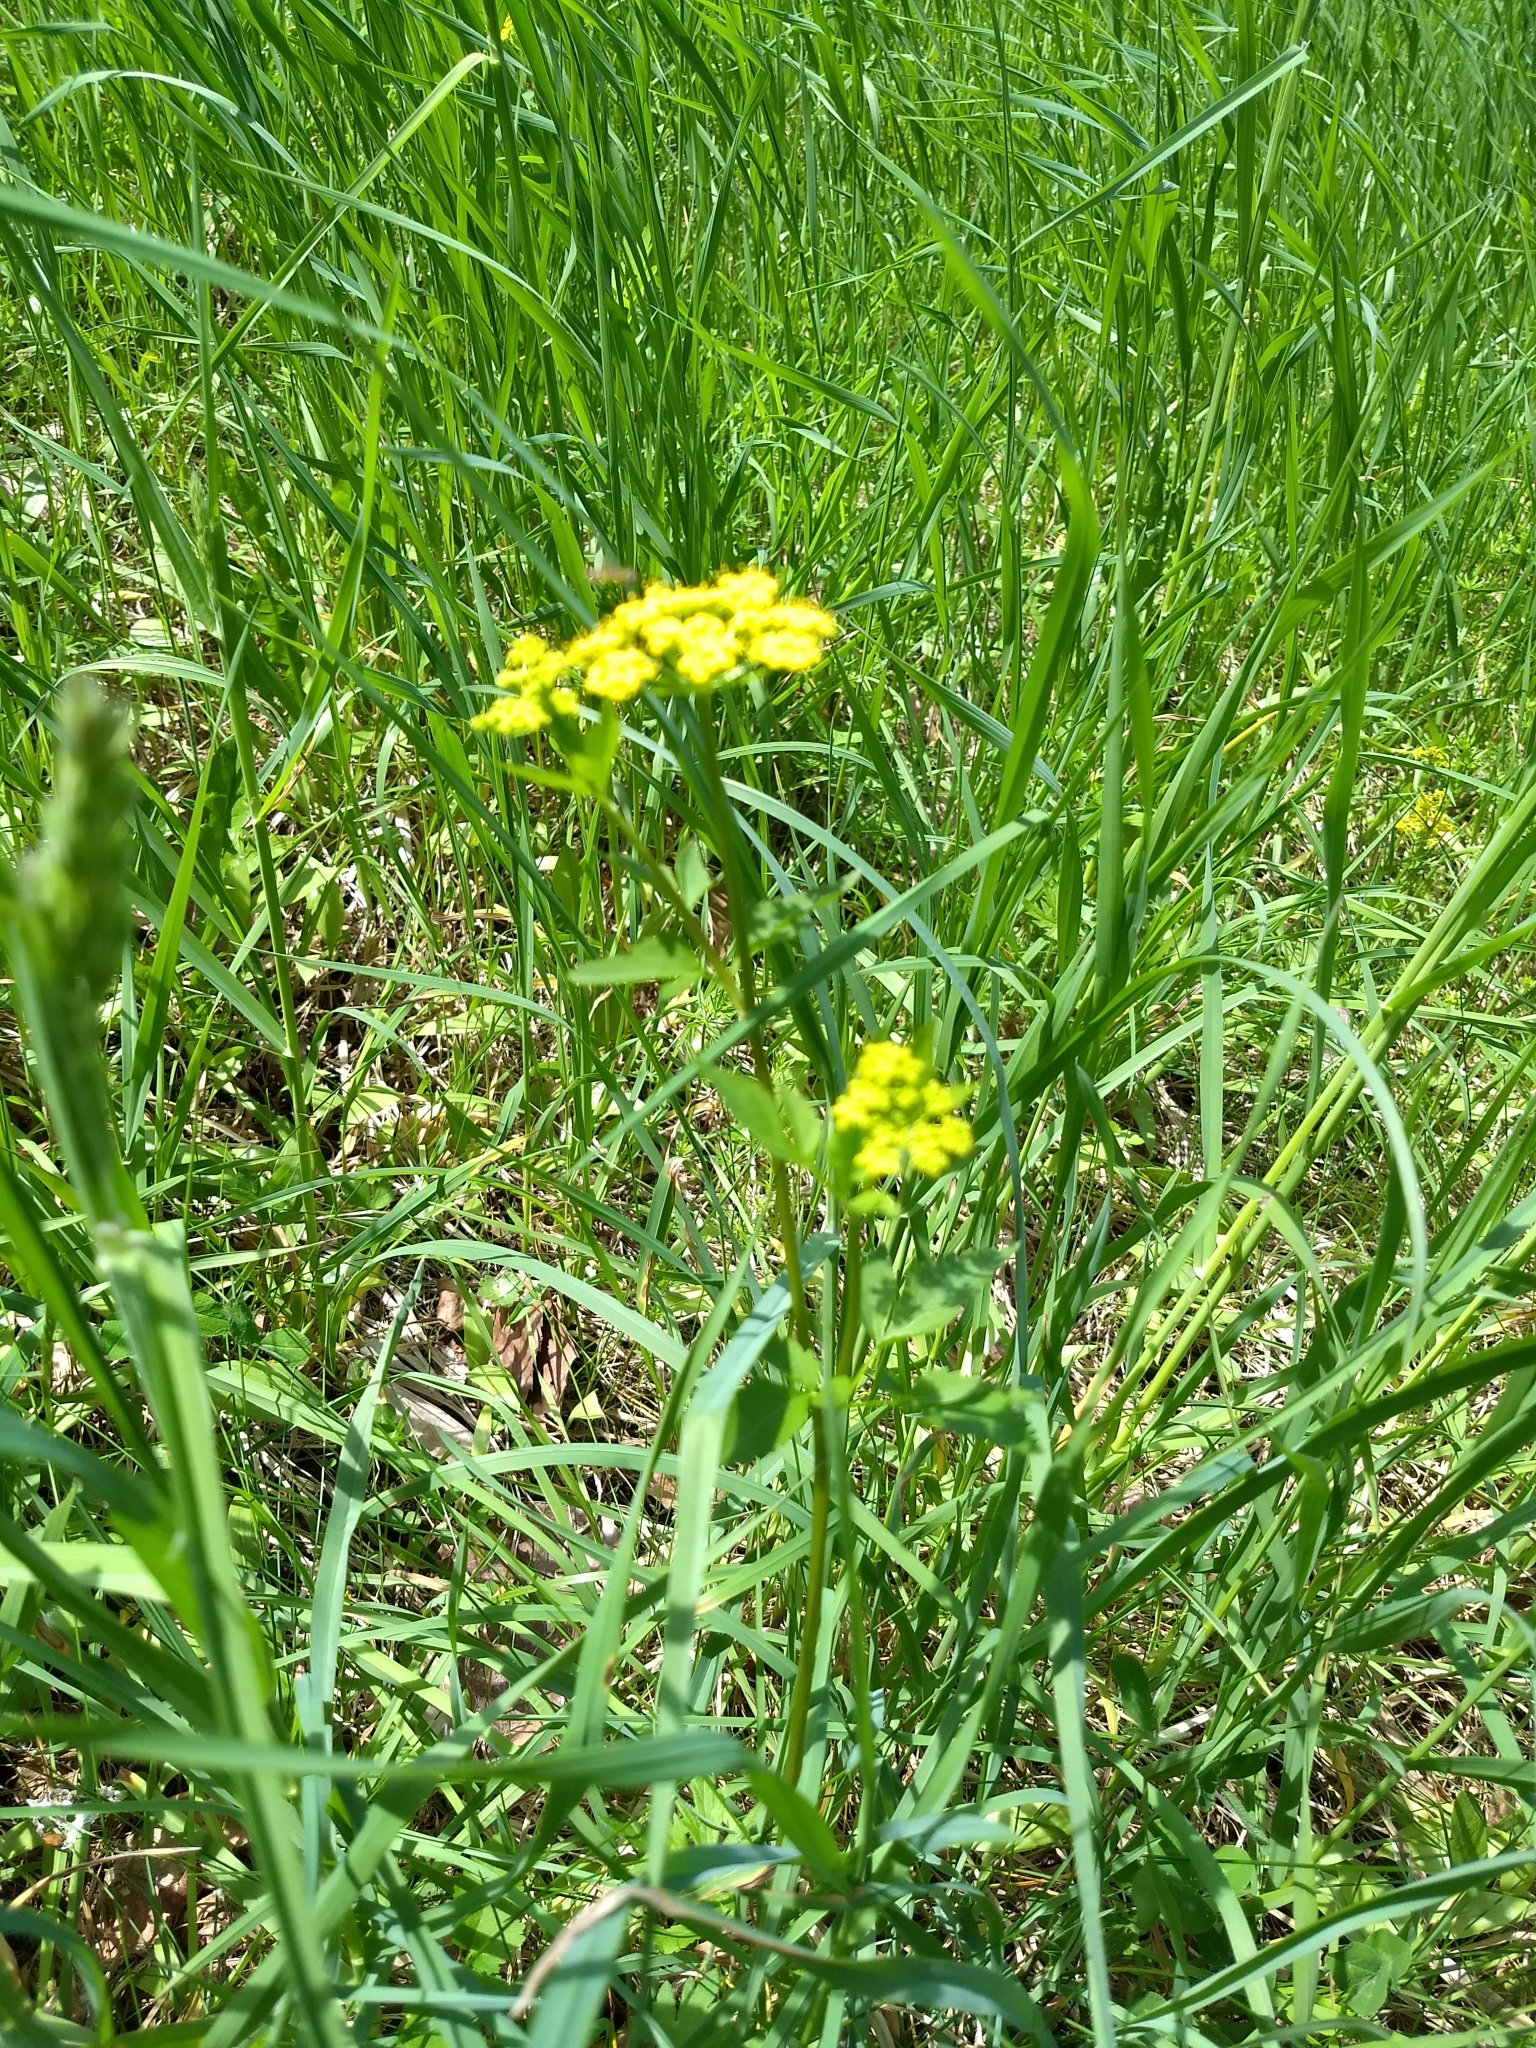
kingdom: Plantae
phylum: Tracheophyta
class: Magnoliopsida
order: Apiales
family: Apiaceae
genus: Zizia
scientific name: Zizia aurea
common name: Golden alexanders
